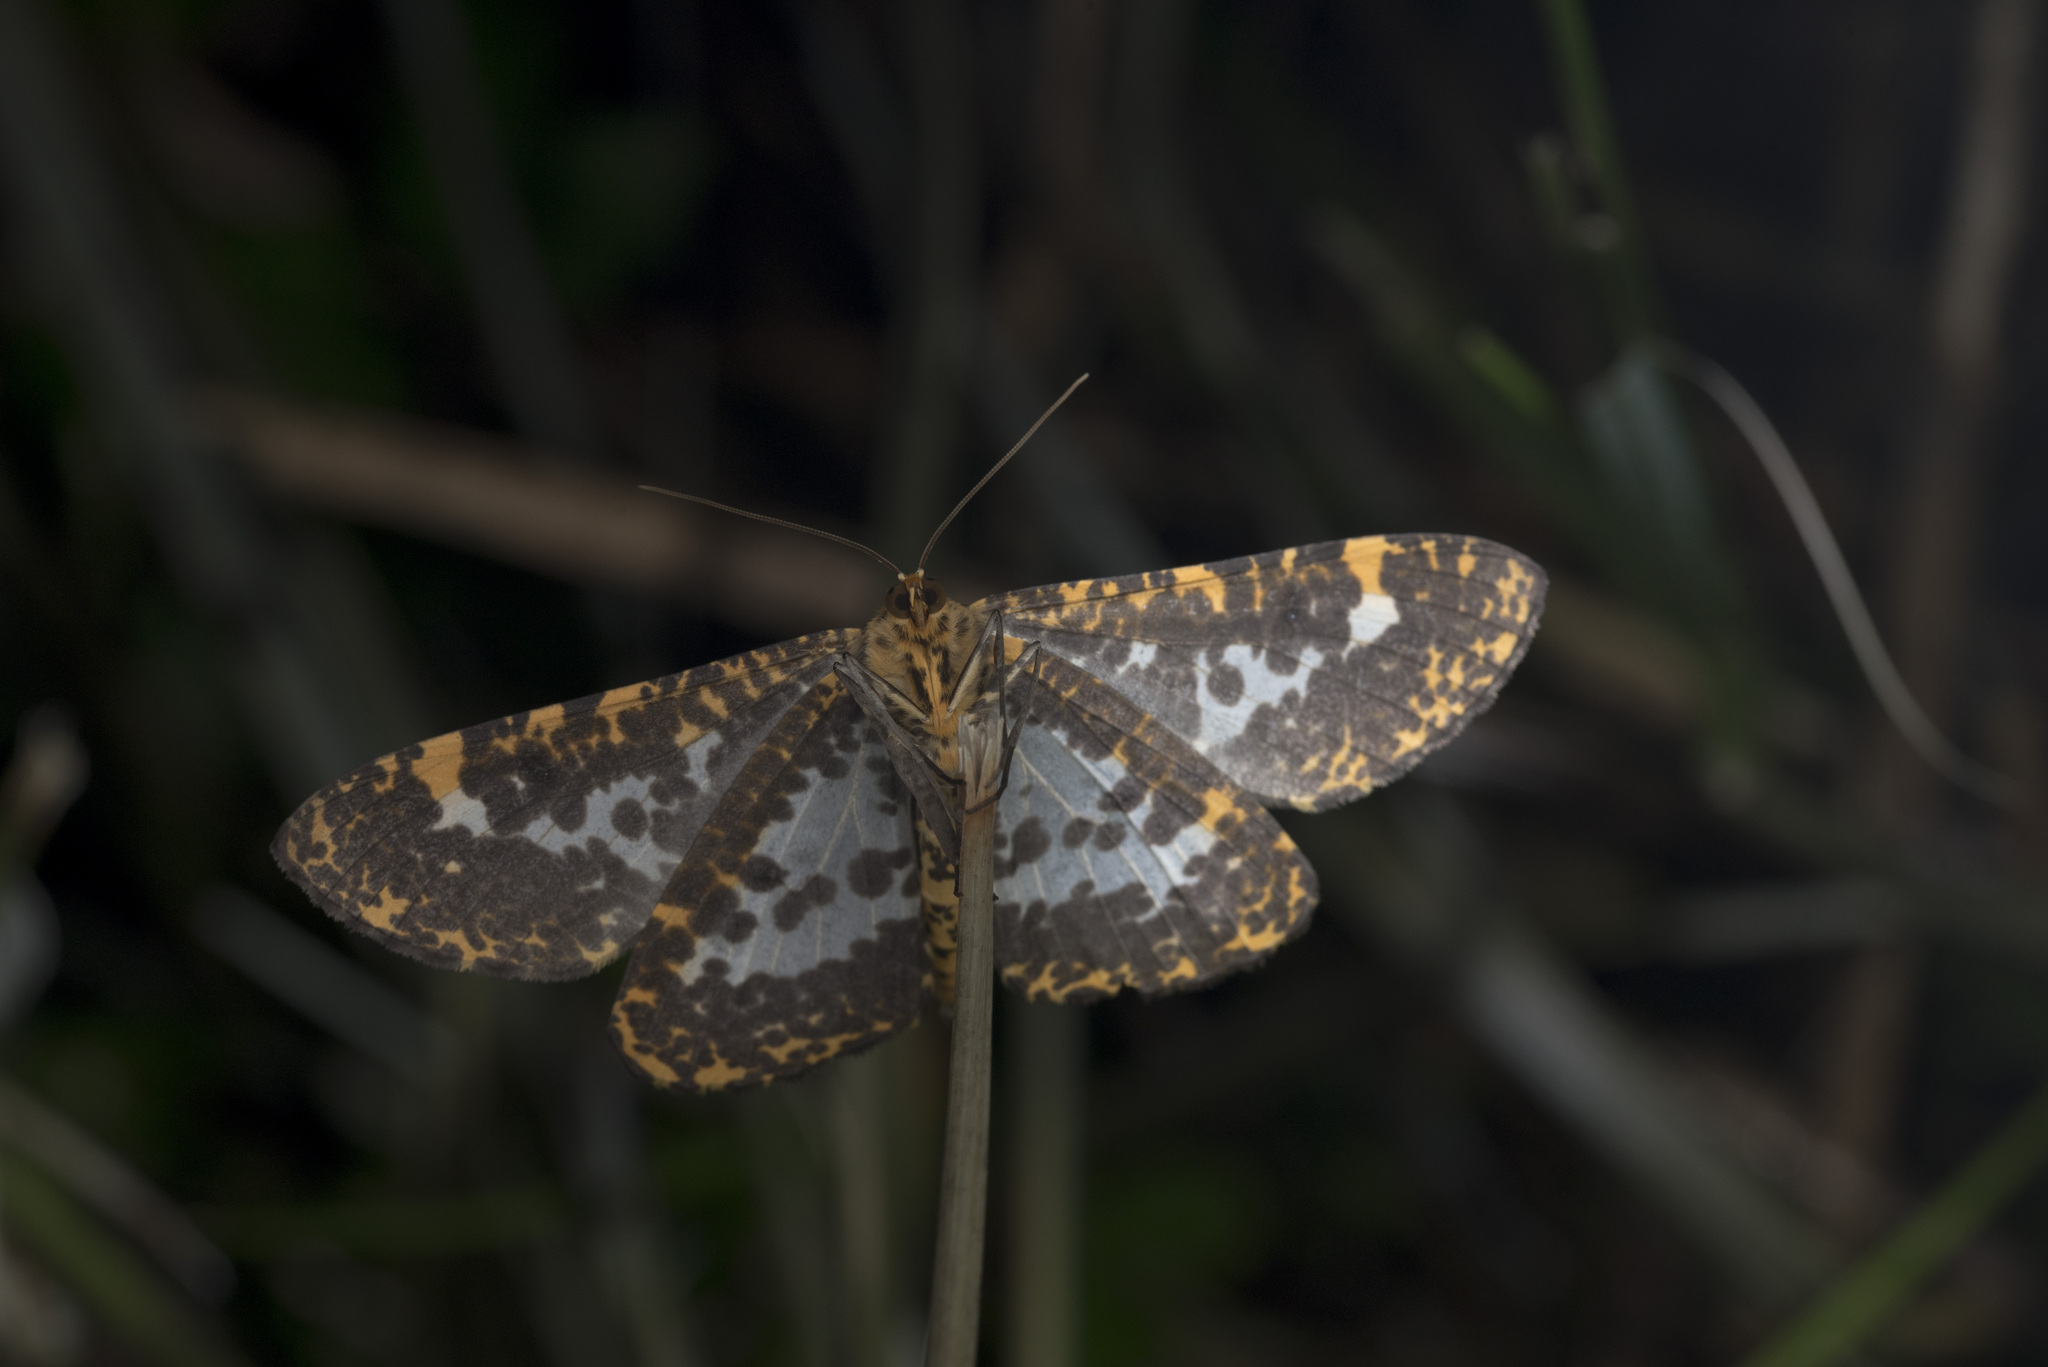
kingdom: Animalia
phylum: Arthropoda
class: Insecta
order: Lepidoptera
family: Geometridae
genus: Obeidia
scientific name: Obeidia Epobeidia lucifera
